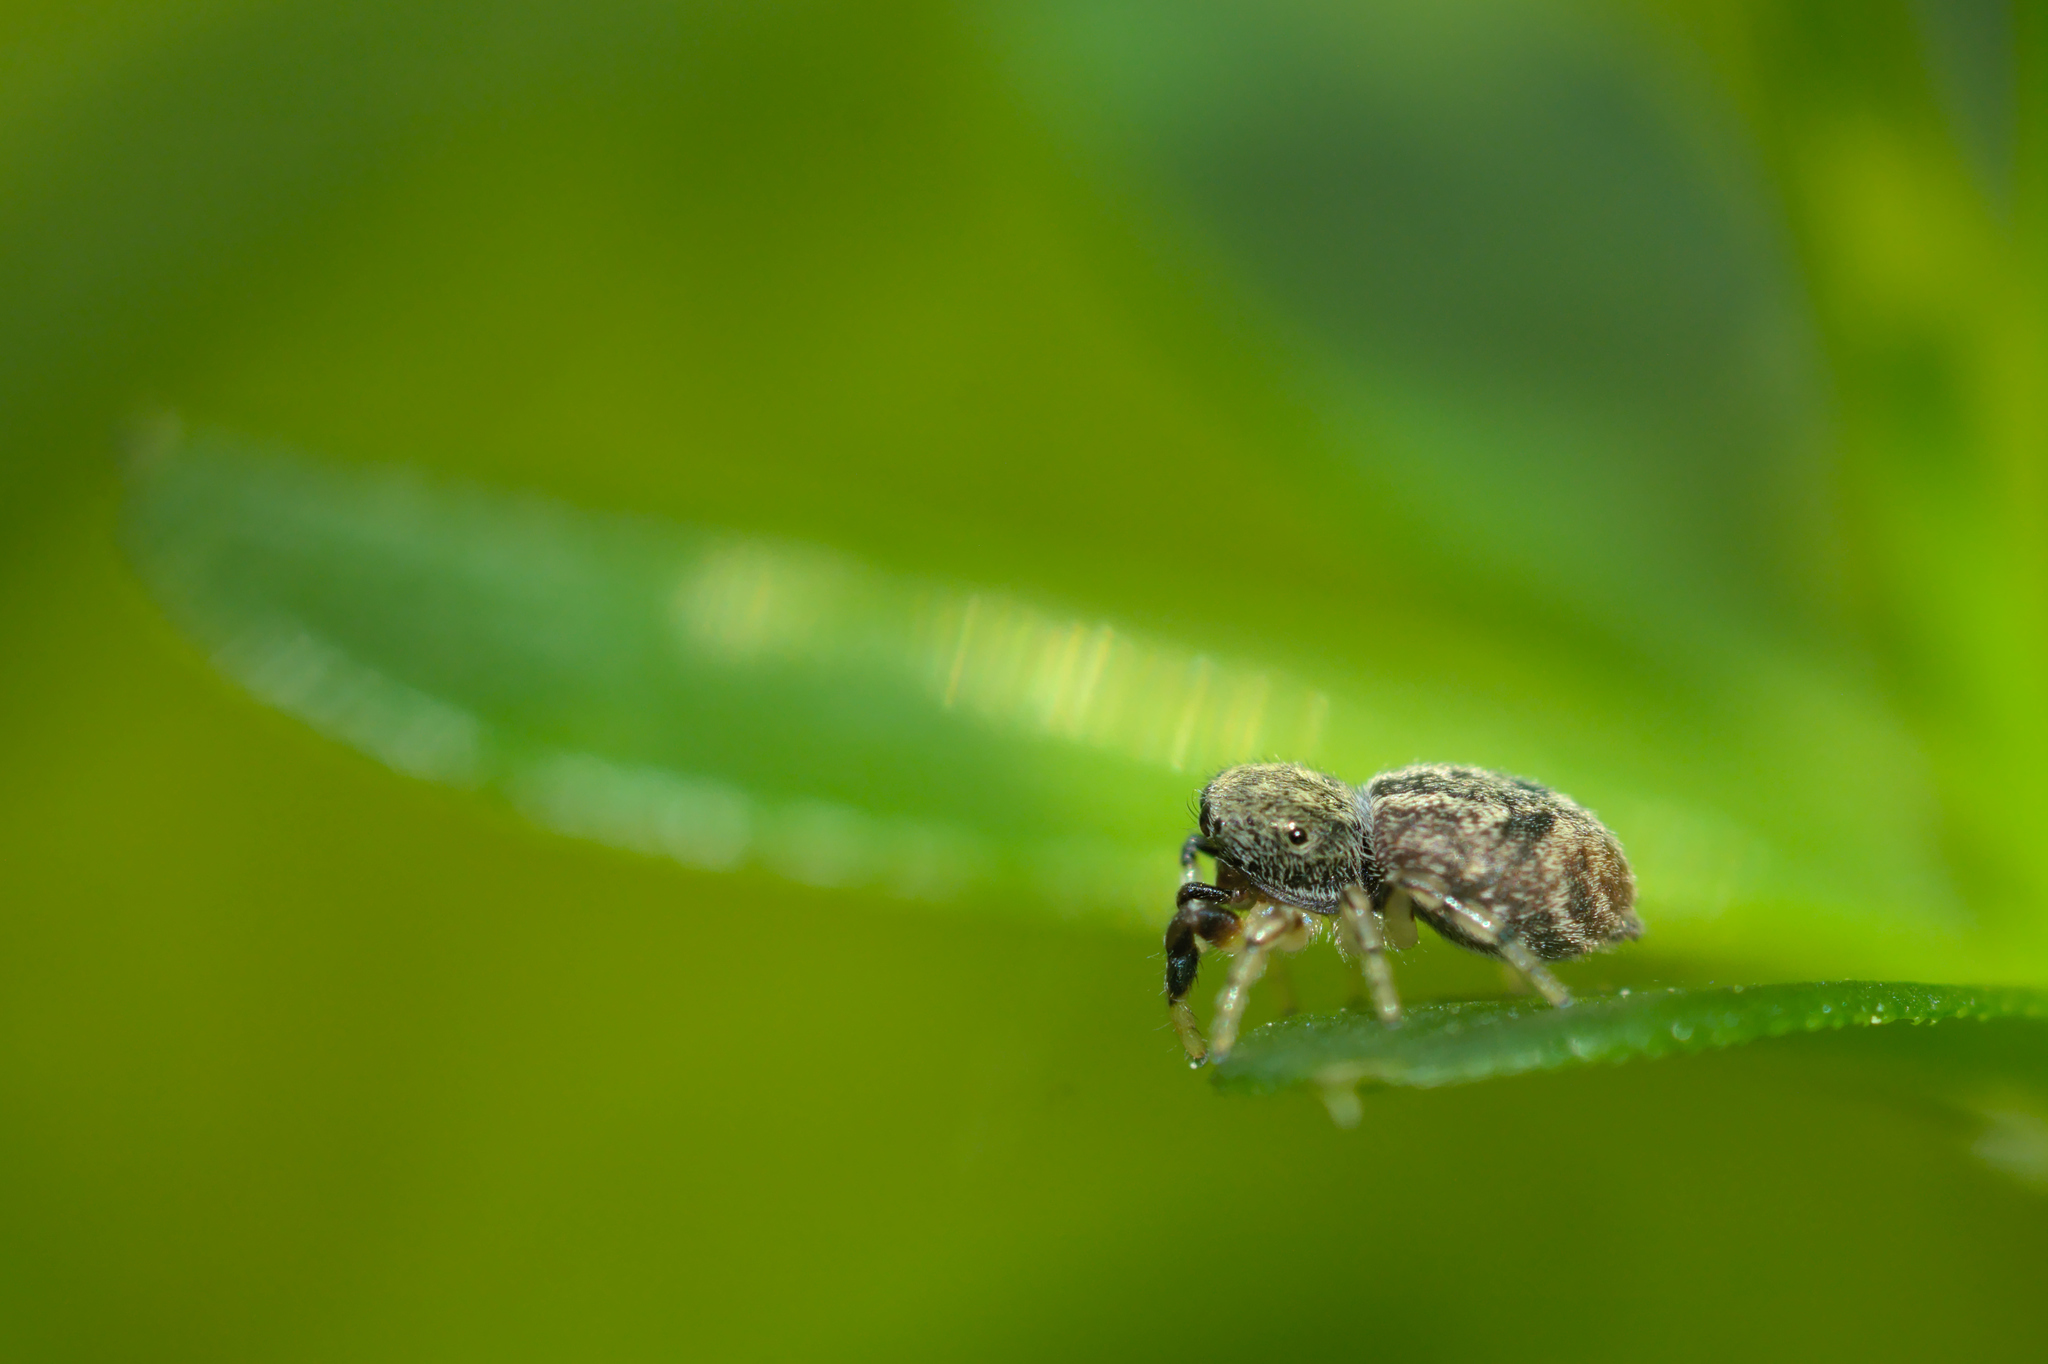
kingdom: Animalia
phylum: Arthropoda
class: Arachnida
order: Araneae
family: Salticidae
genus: Ballus
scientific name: Ballus chalybeius
